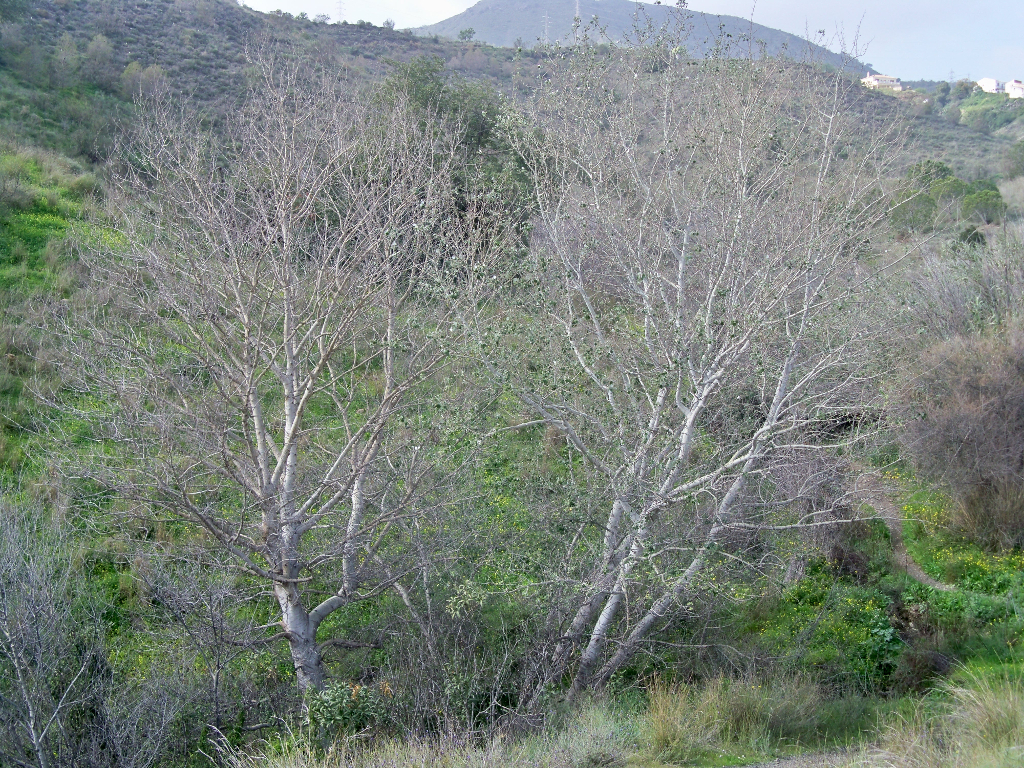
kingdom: Plantae
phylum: Tracheophyta
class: Magnoliopsida
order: Malpighiales
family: Salicaceae
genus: Populus
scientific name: Populus alba
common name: White poplar
